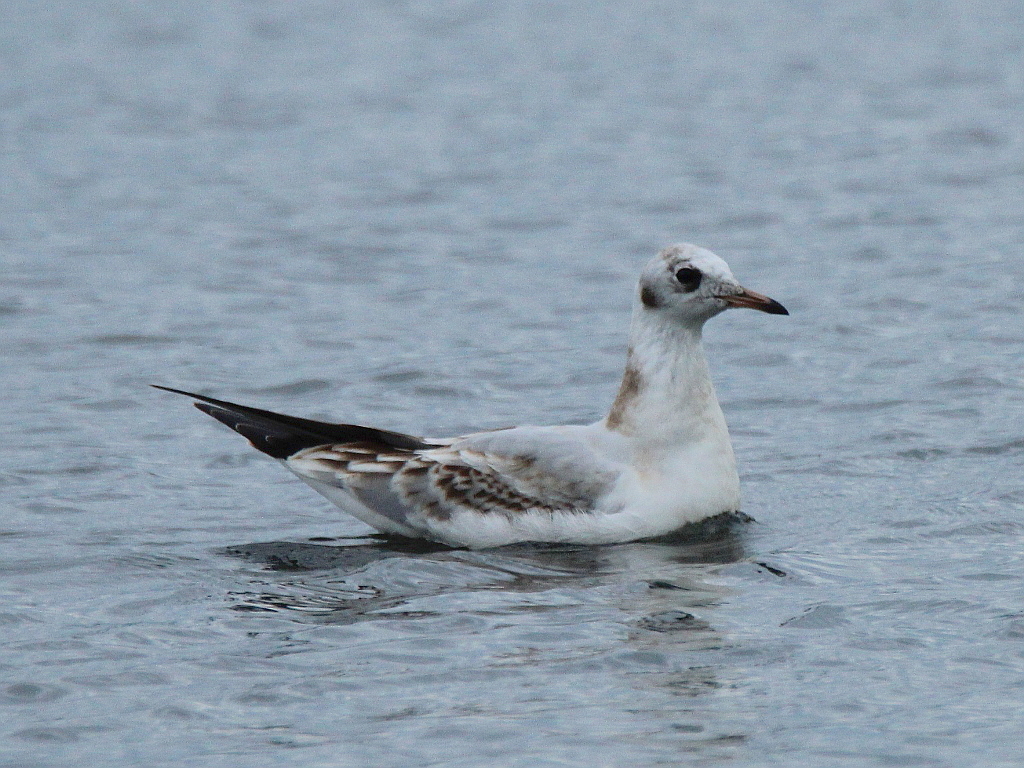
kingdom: Animalia
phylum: Chordata
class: Aves
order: Charadriiformes
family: Laridae
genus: Chroicocephalus
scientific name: Chroicocephalus ridibundus
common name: Black-headed gull
